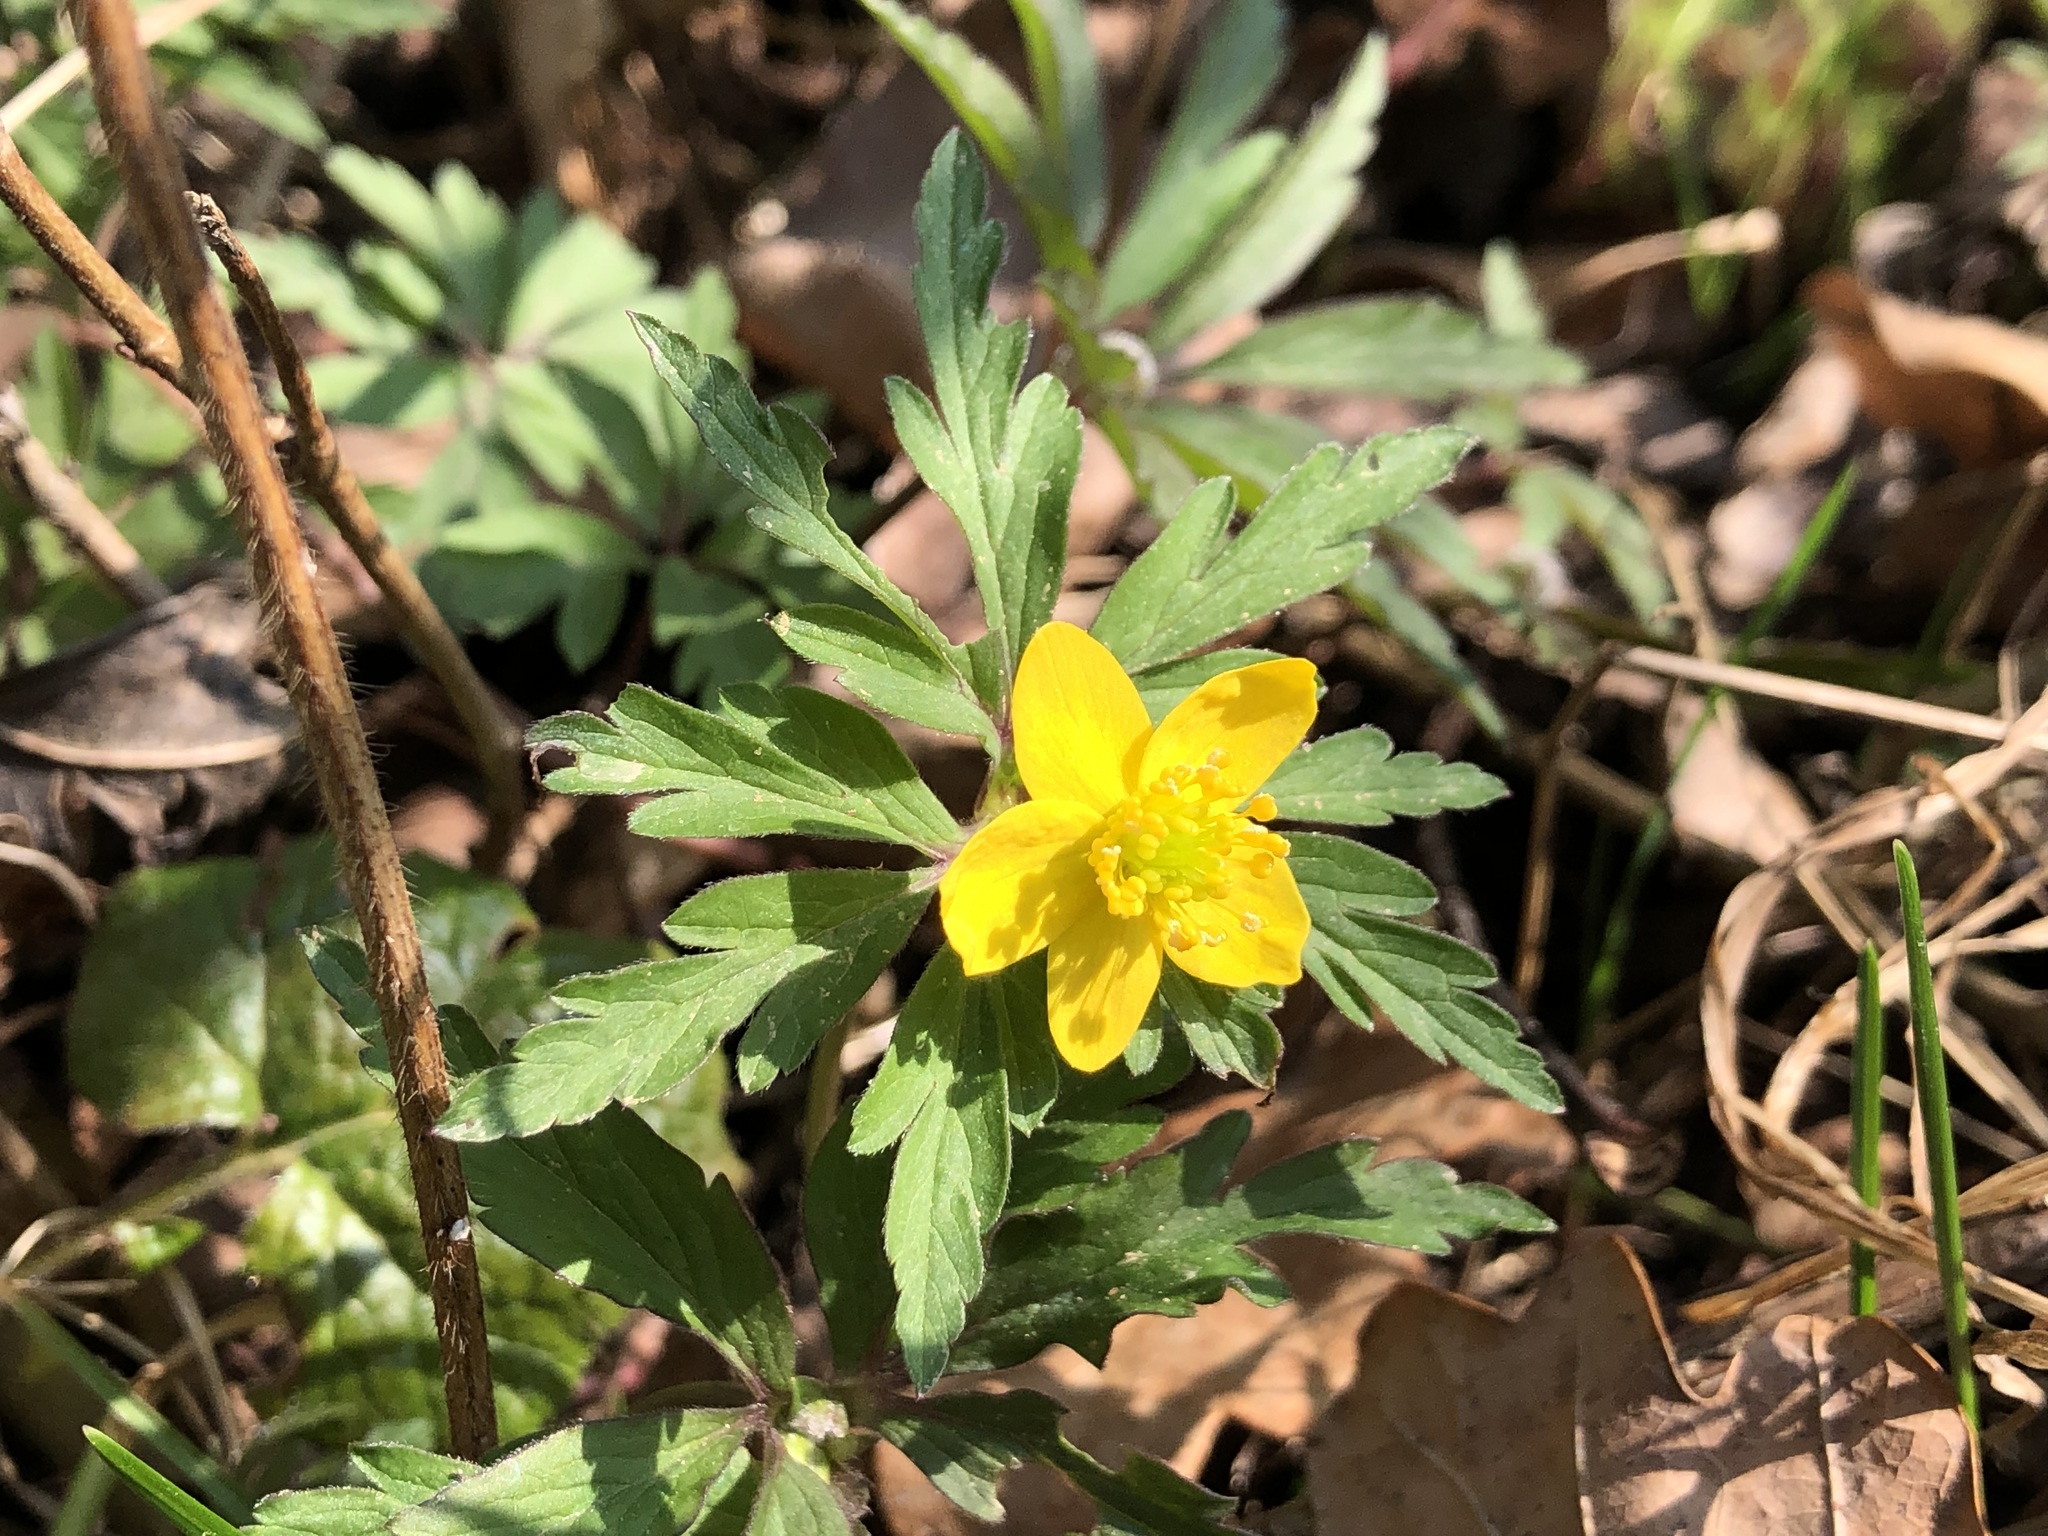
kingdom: Plantae
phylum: Tracheophyta
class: Magnoliopsida
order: Ranunculales
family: Ranunculaceae
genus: Anemone
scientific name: Anemone ranunculoides
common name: Yellow anemone
